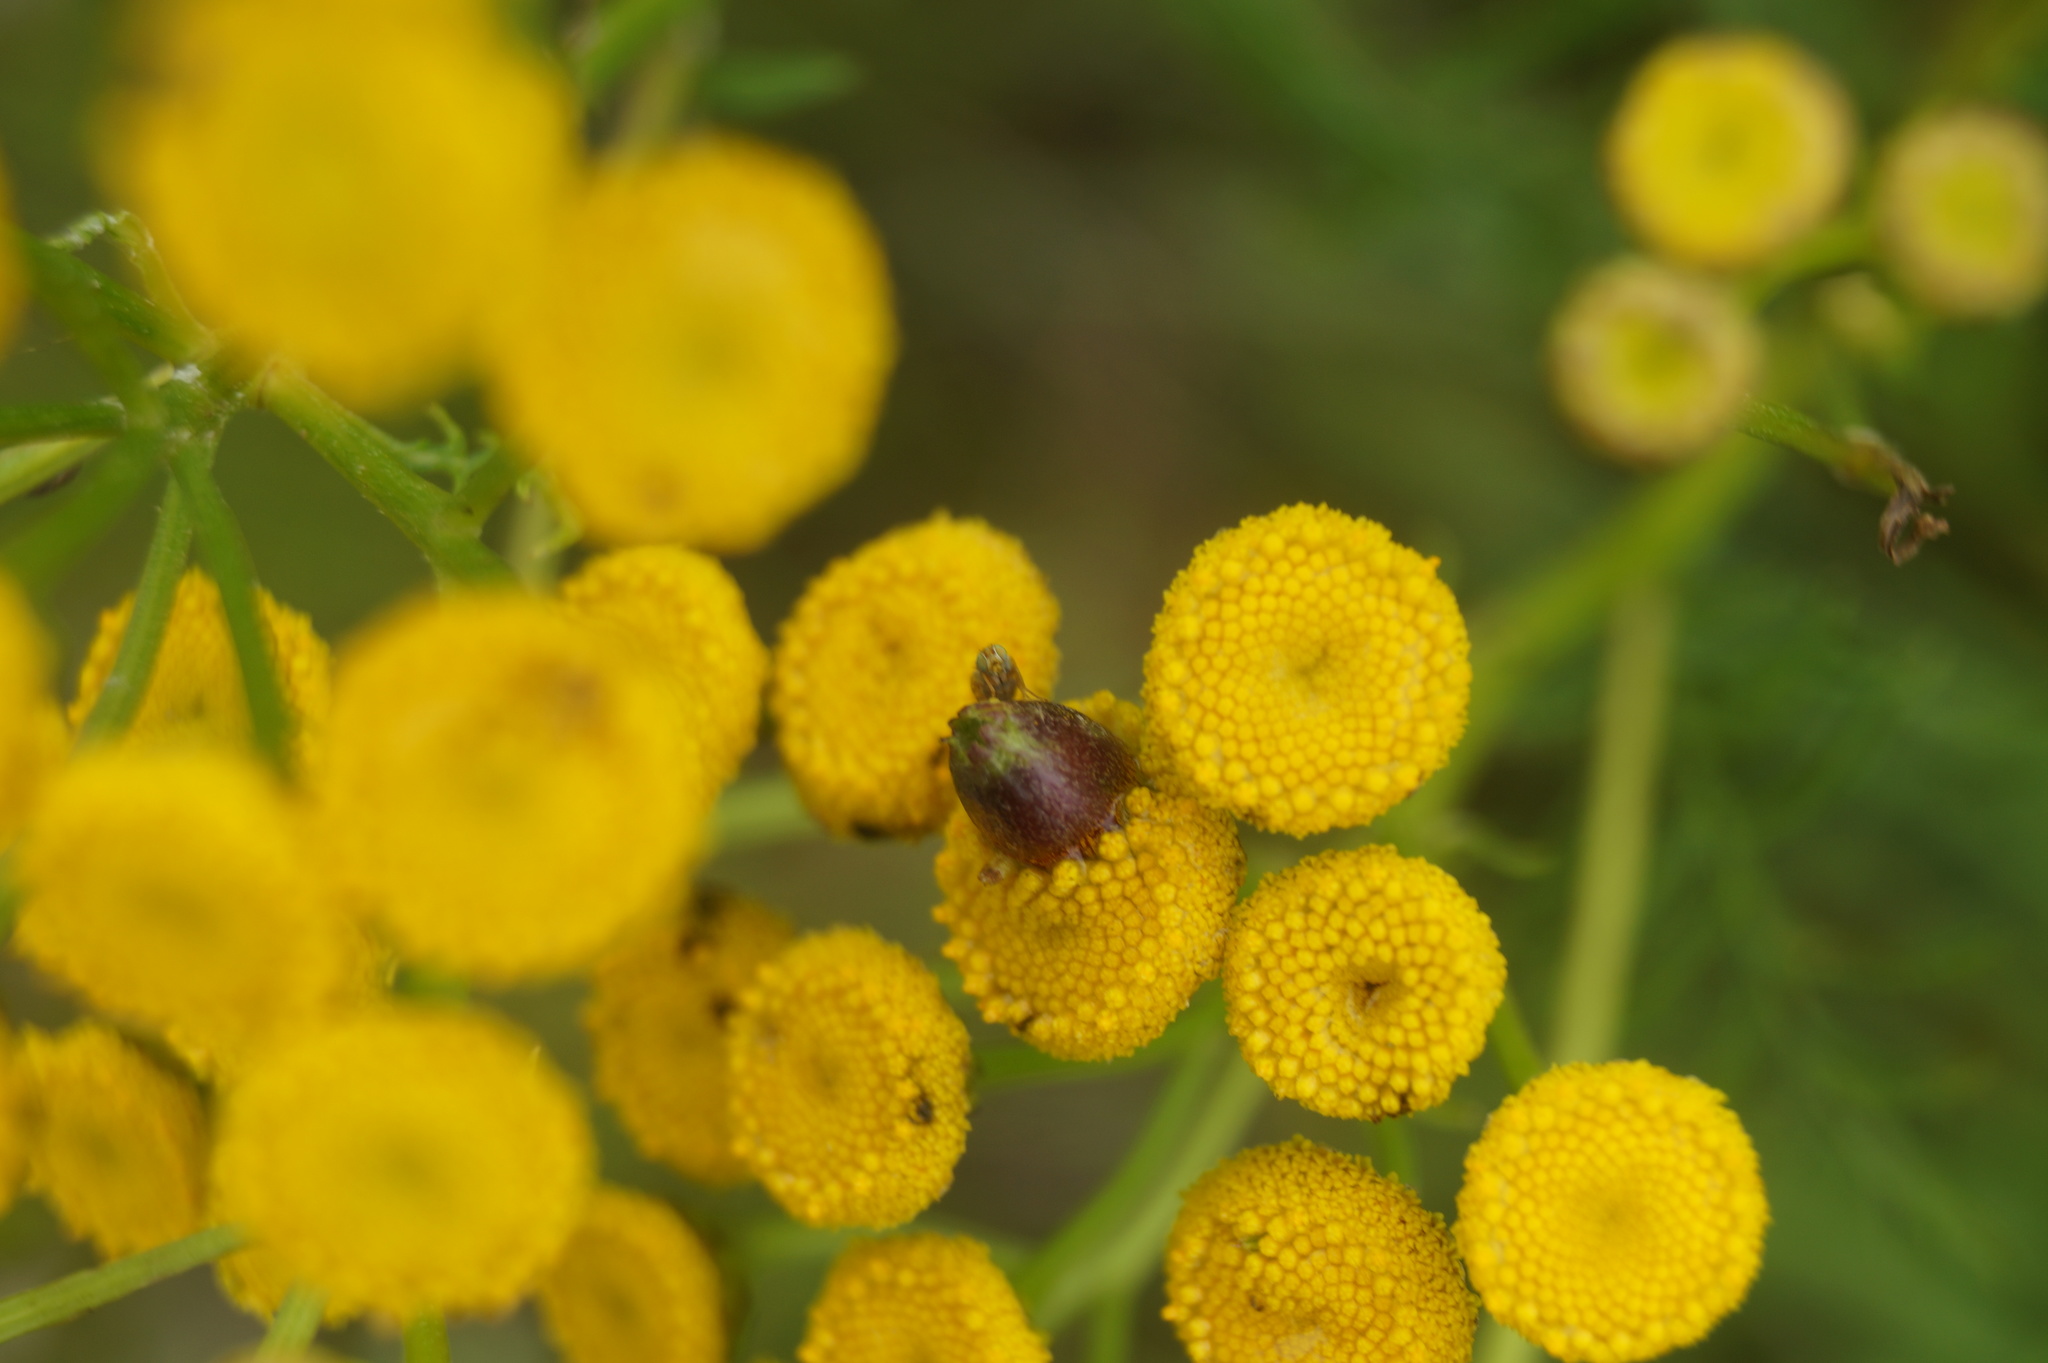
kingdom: Animalia
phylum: Arthropoda
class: Insecta
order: Diptera
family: Cecidomyiidae
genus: Rhopalomyia
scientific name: Rhopalomyia tanaceticolus
